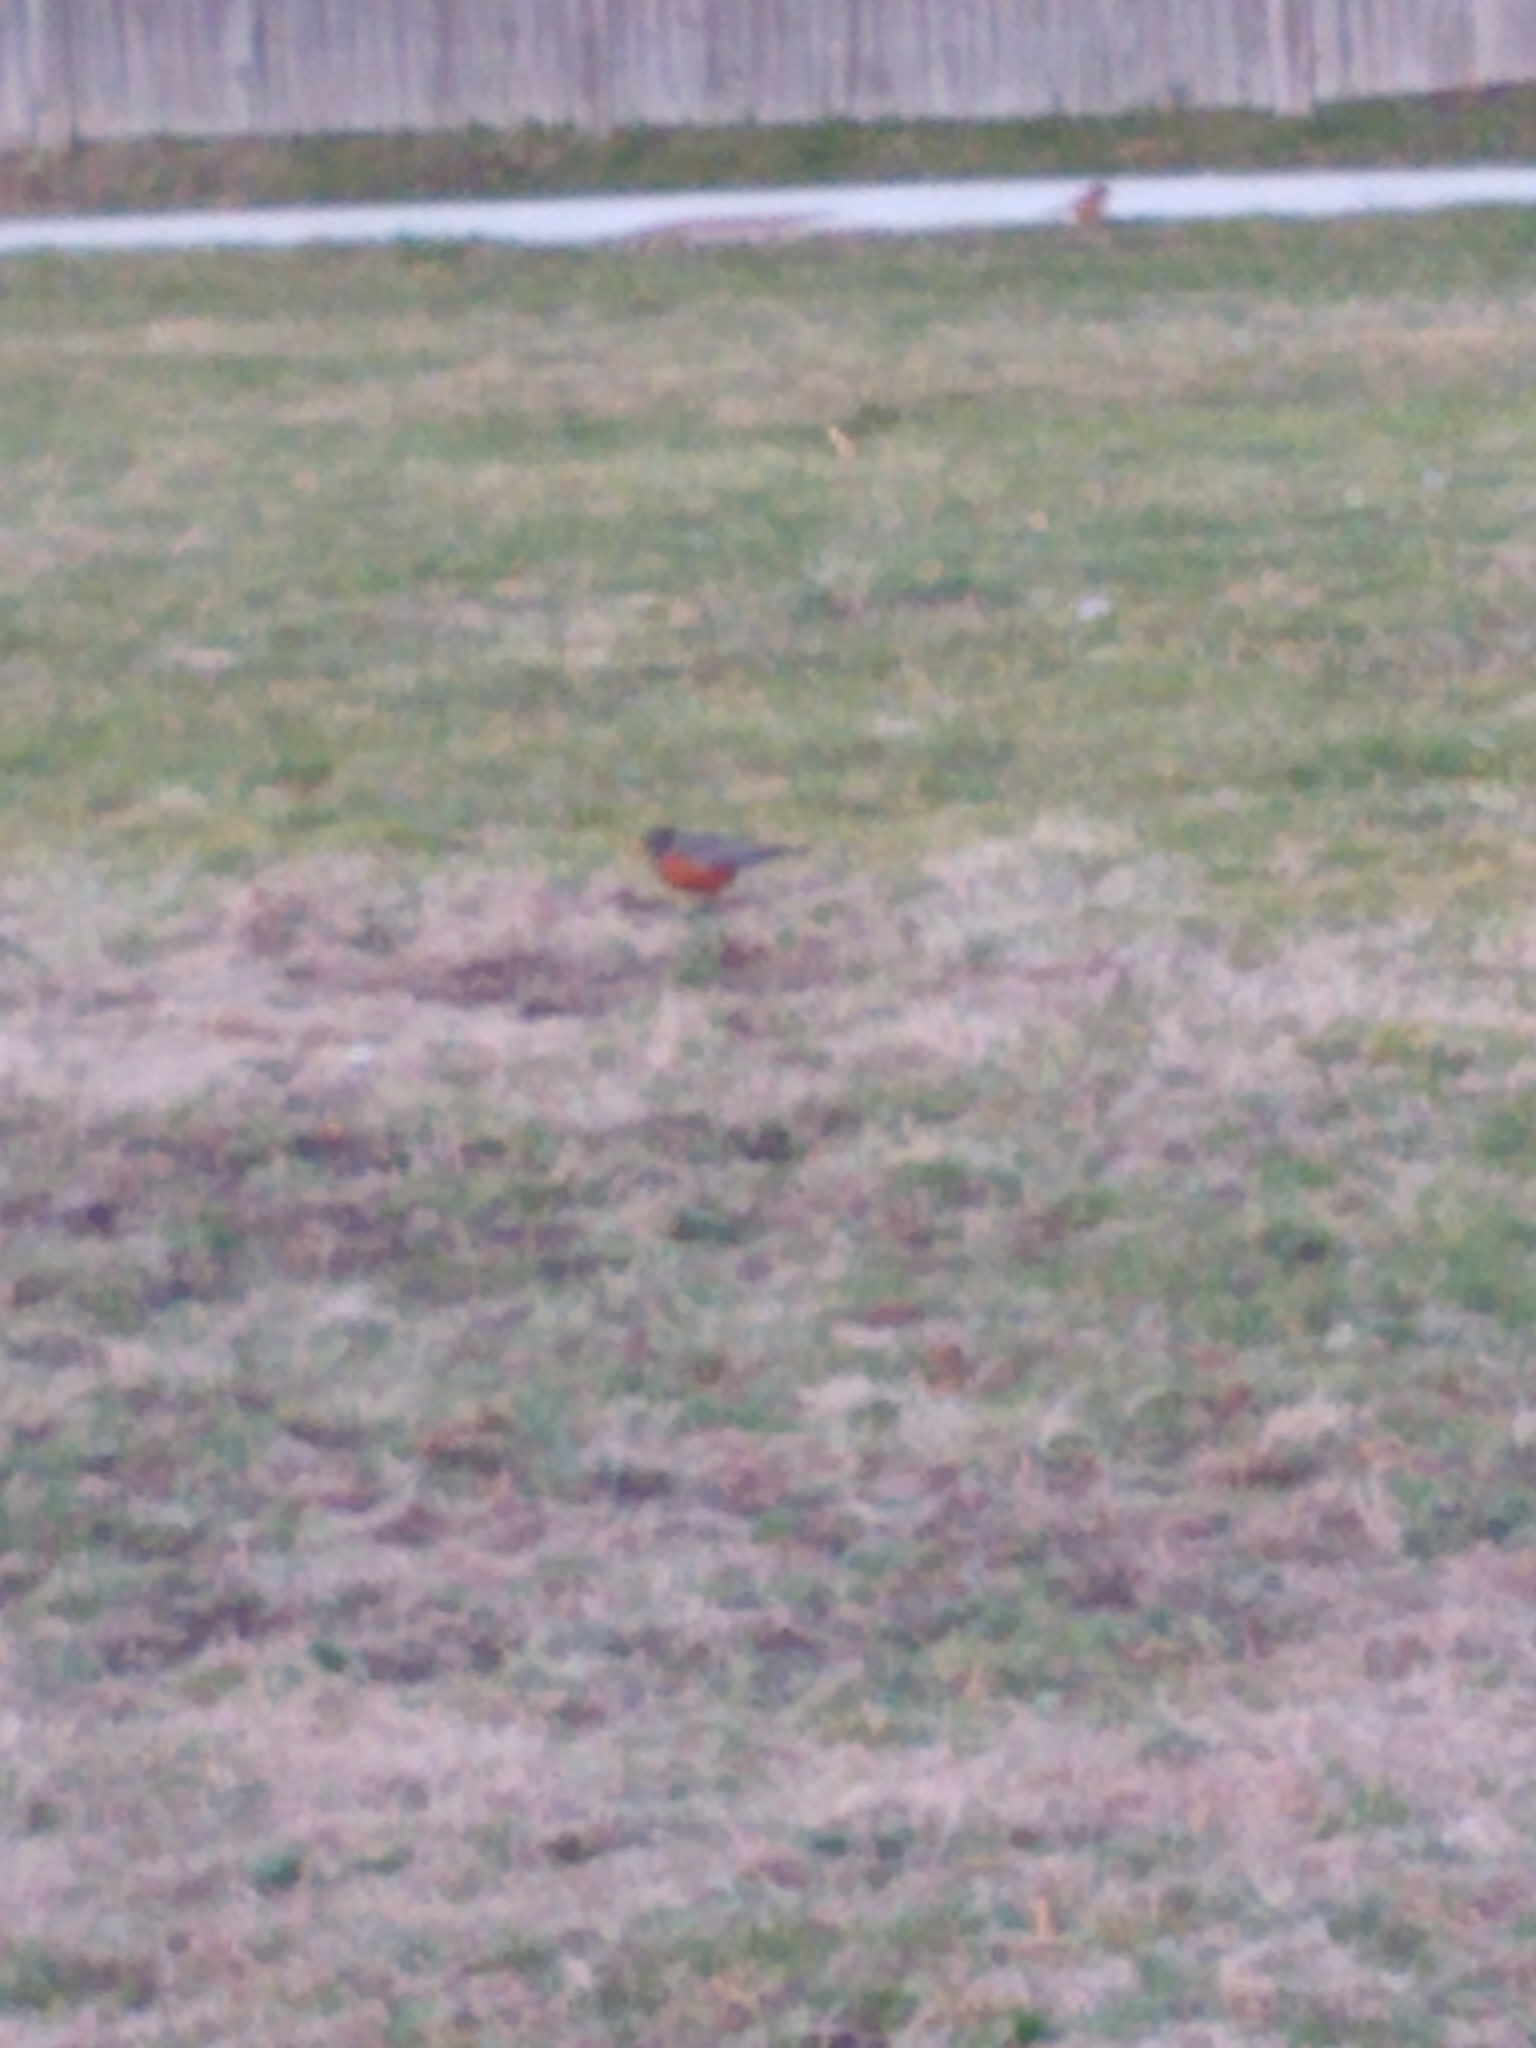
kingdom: Animalia
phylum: Chordata
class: Aves
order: Passeriformes
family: Turdidae
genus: Turdus
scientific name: Turdus migratorius
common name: American robin
